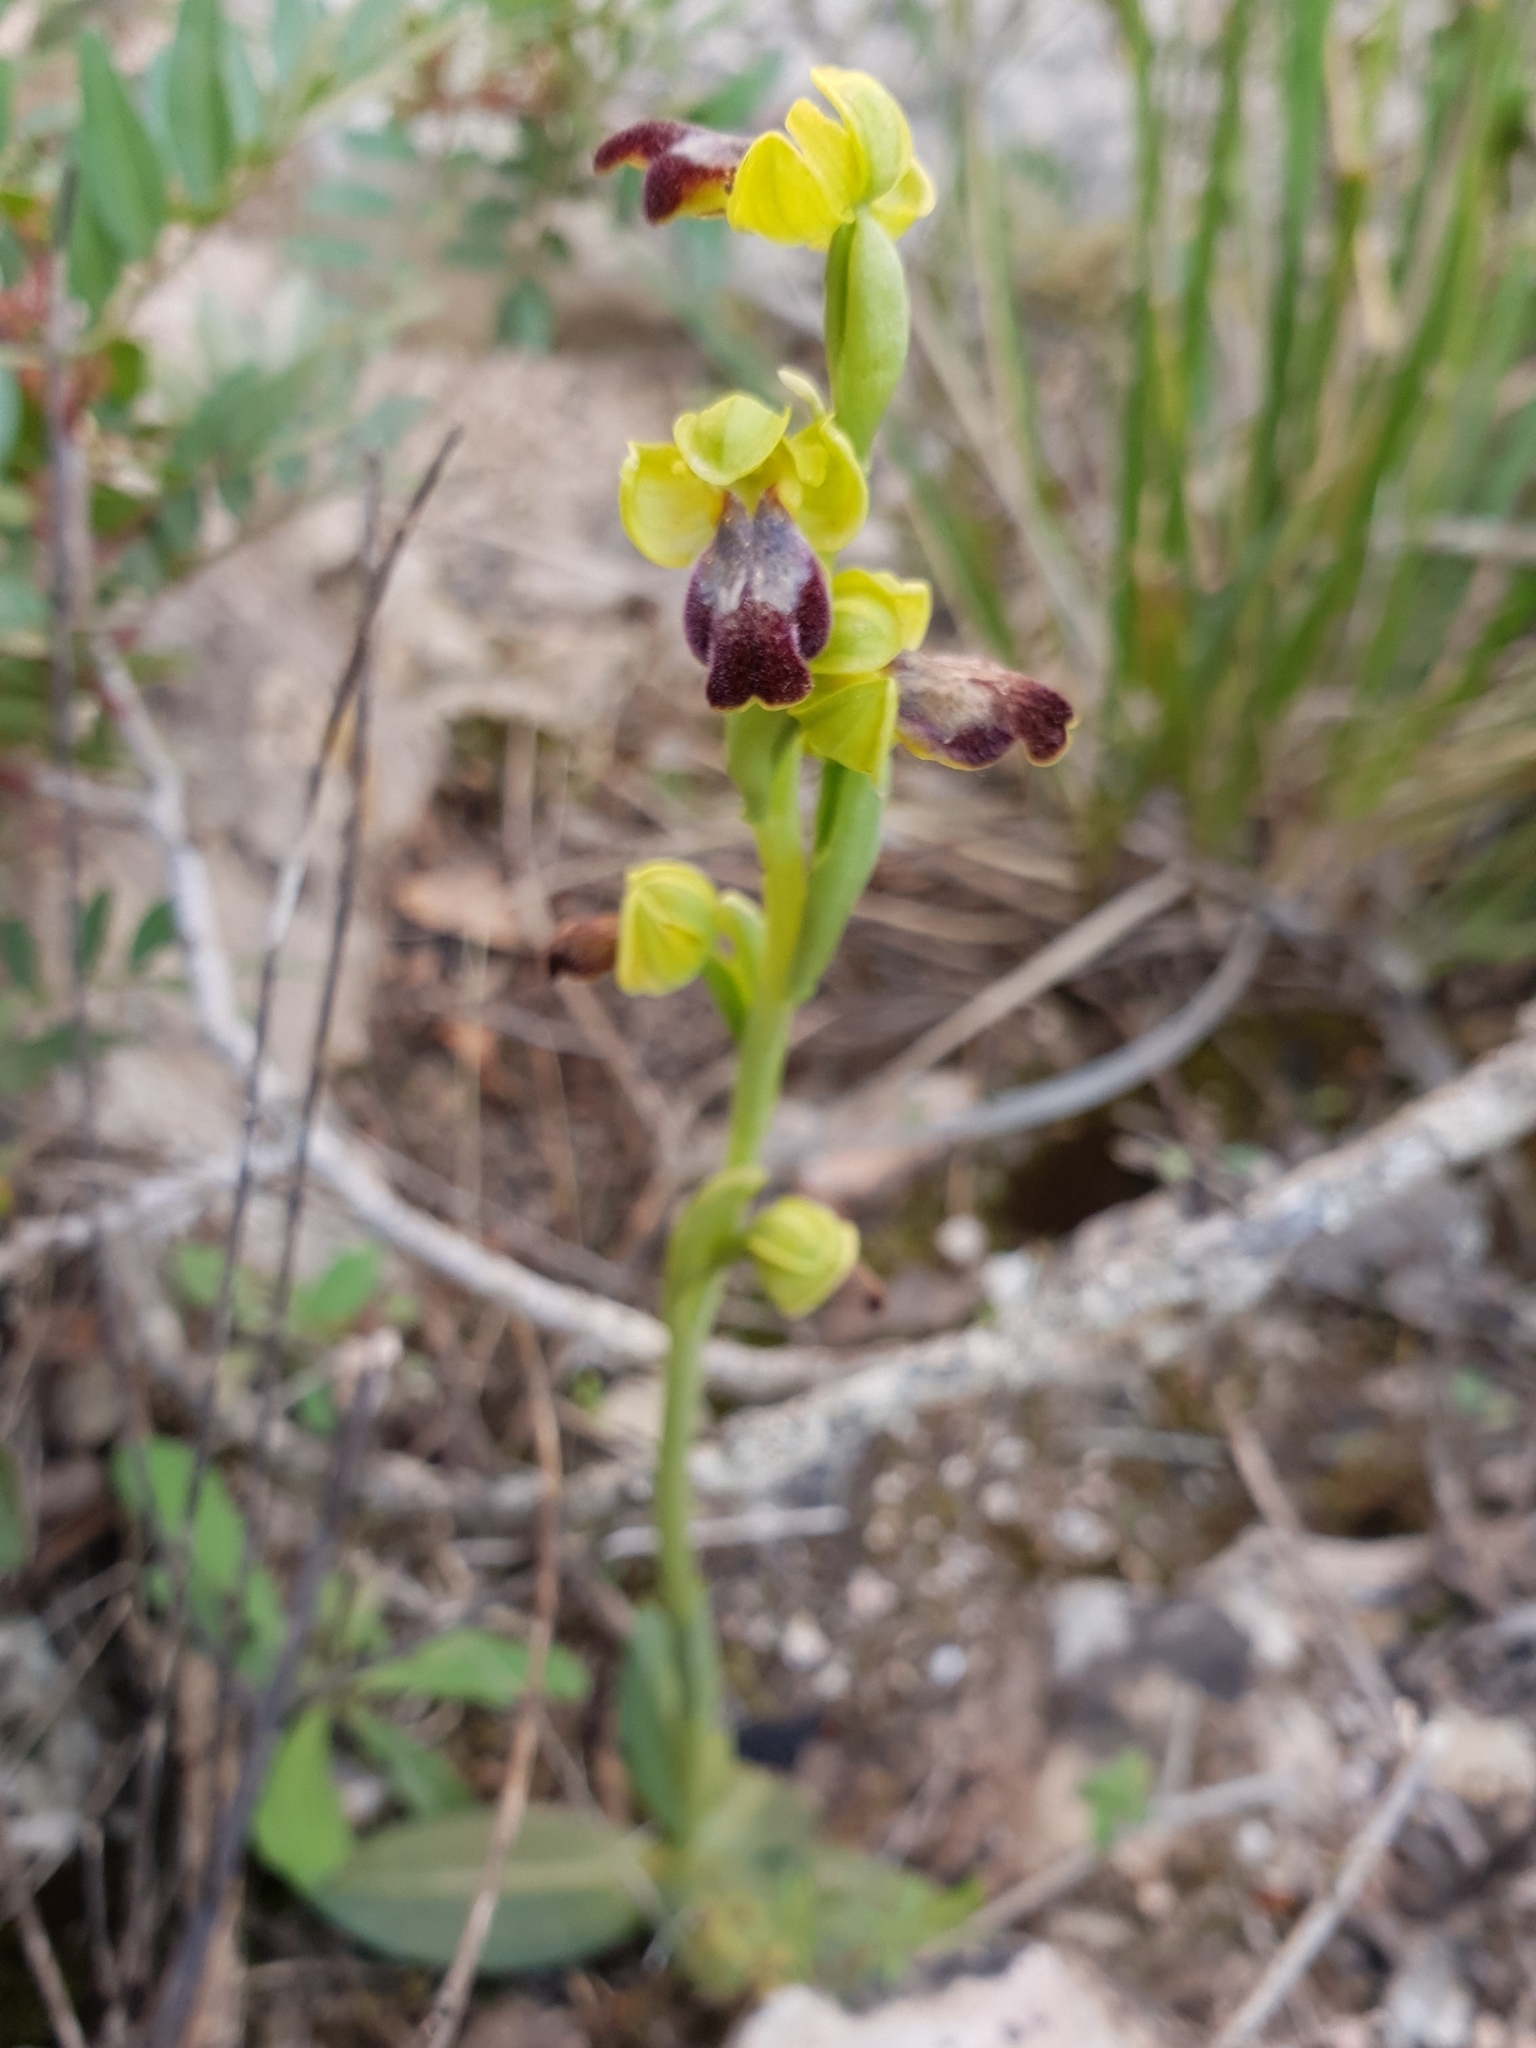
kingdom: Plantae
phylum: Tracheophyta
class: Liliopsida
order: Asparagales
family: Orchidaceae
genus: Ophrys
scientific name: Ophrys fusca
